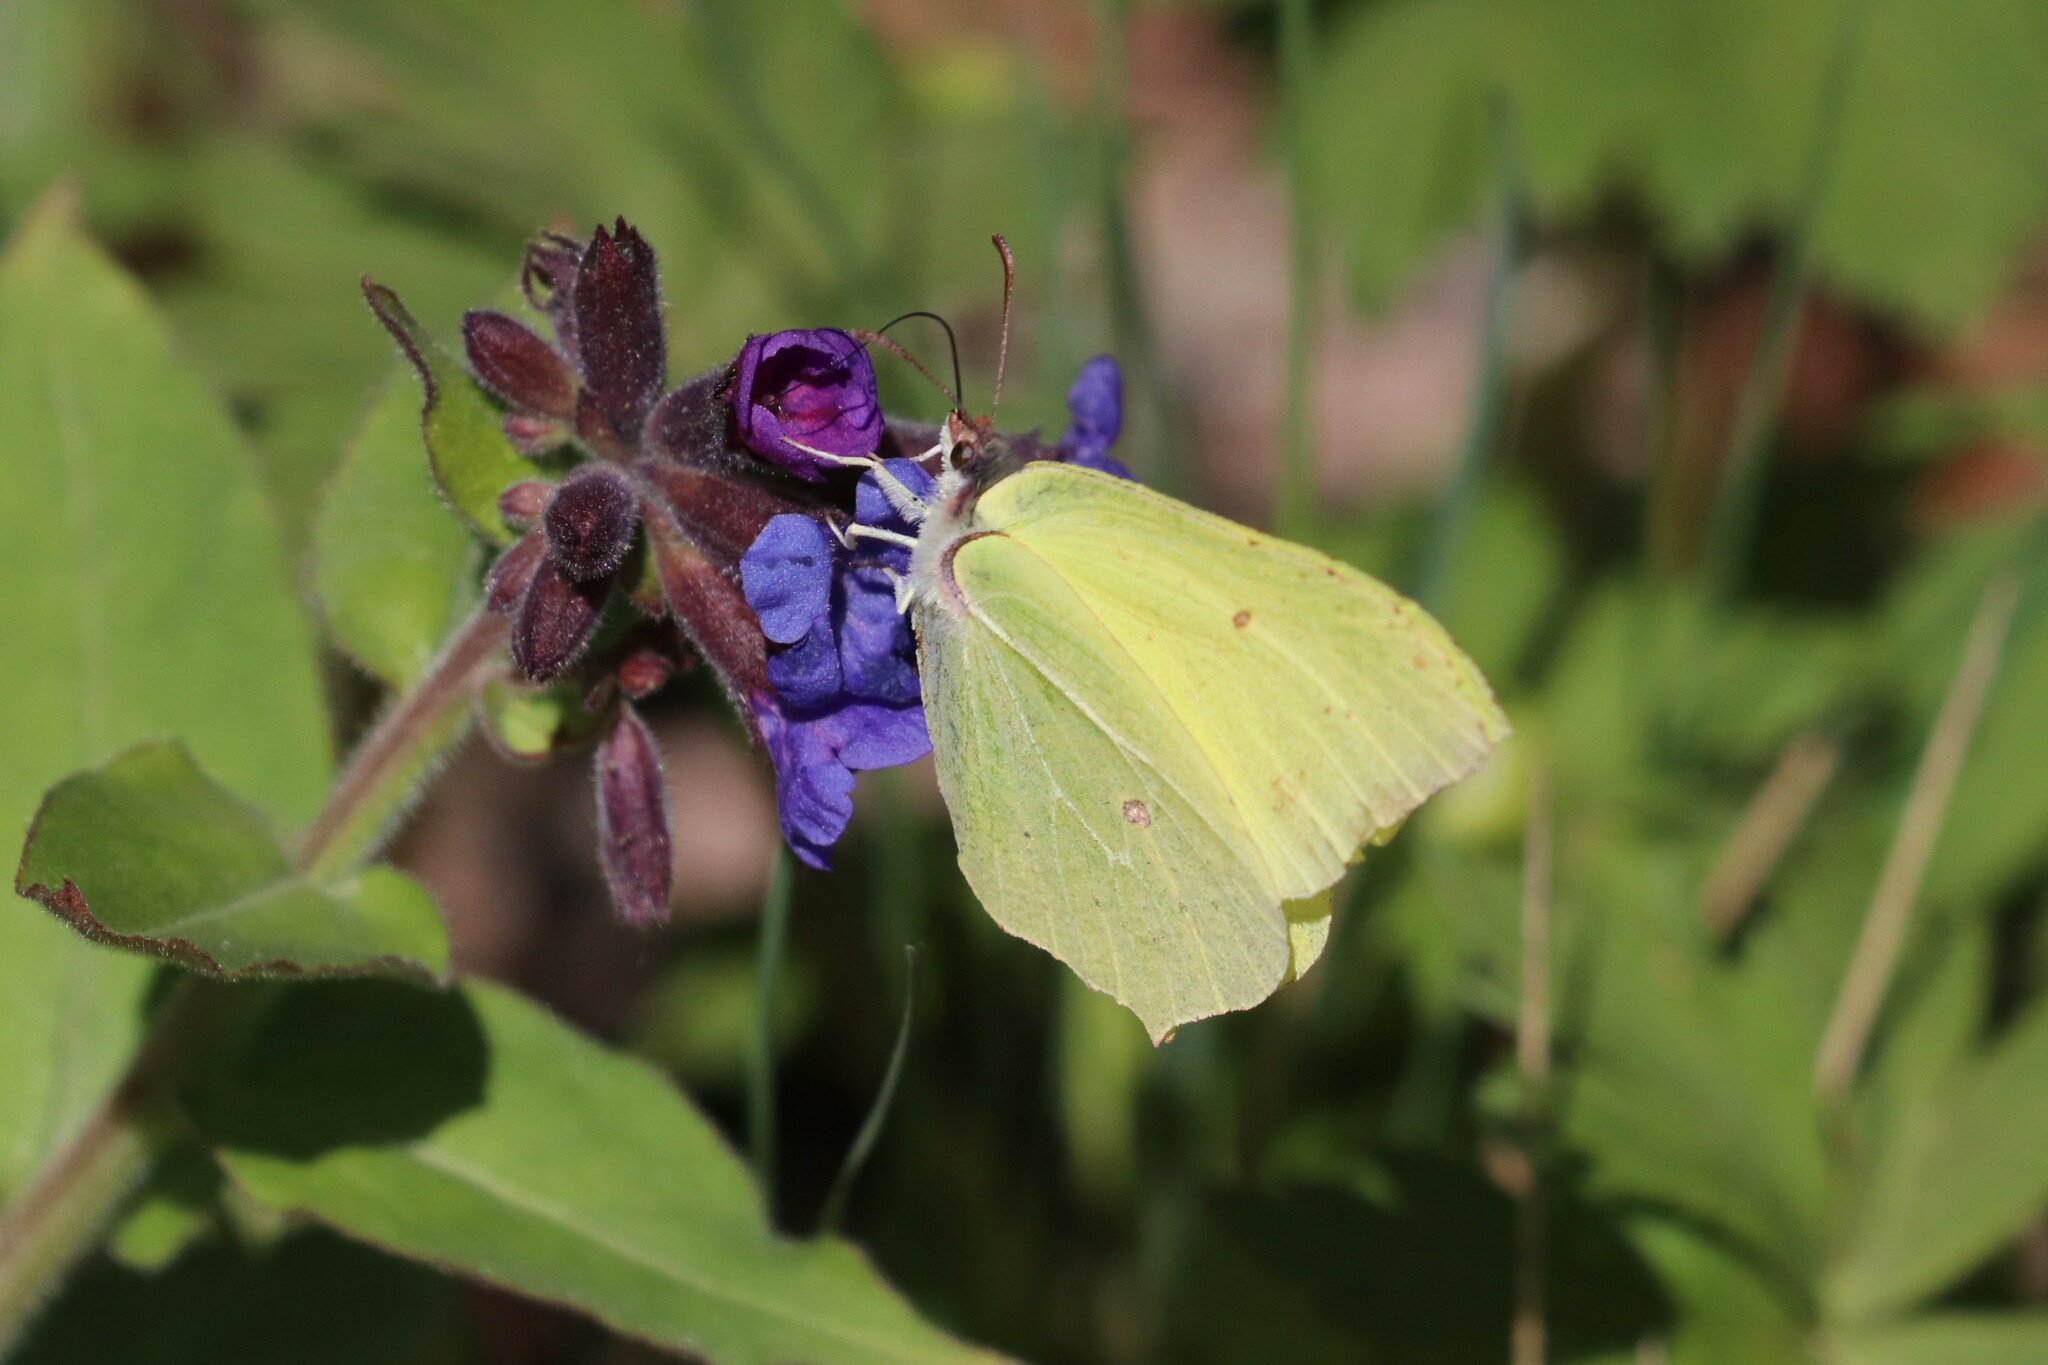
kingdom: Animalia
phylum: Arthropoda
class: Insecta
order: Lepidoptera
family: Pieridae
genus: Gonepteryx
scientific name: Gonepteryx rhamni
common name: Brimstone
